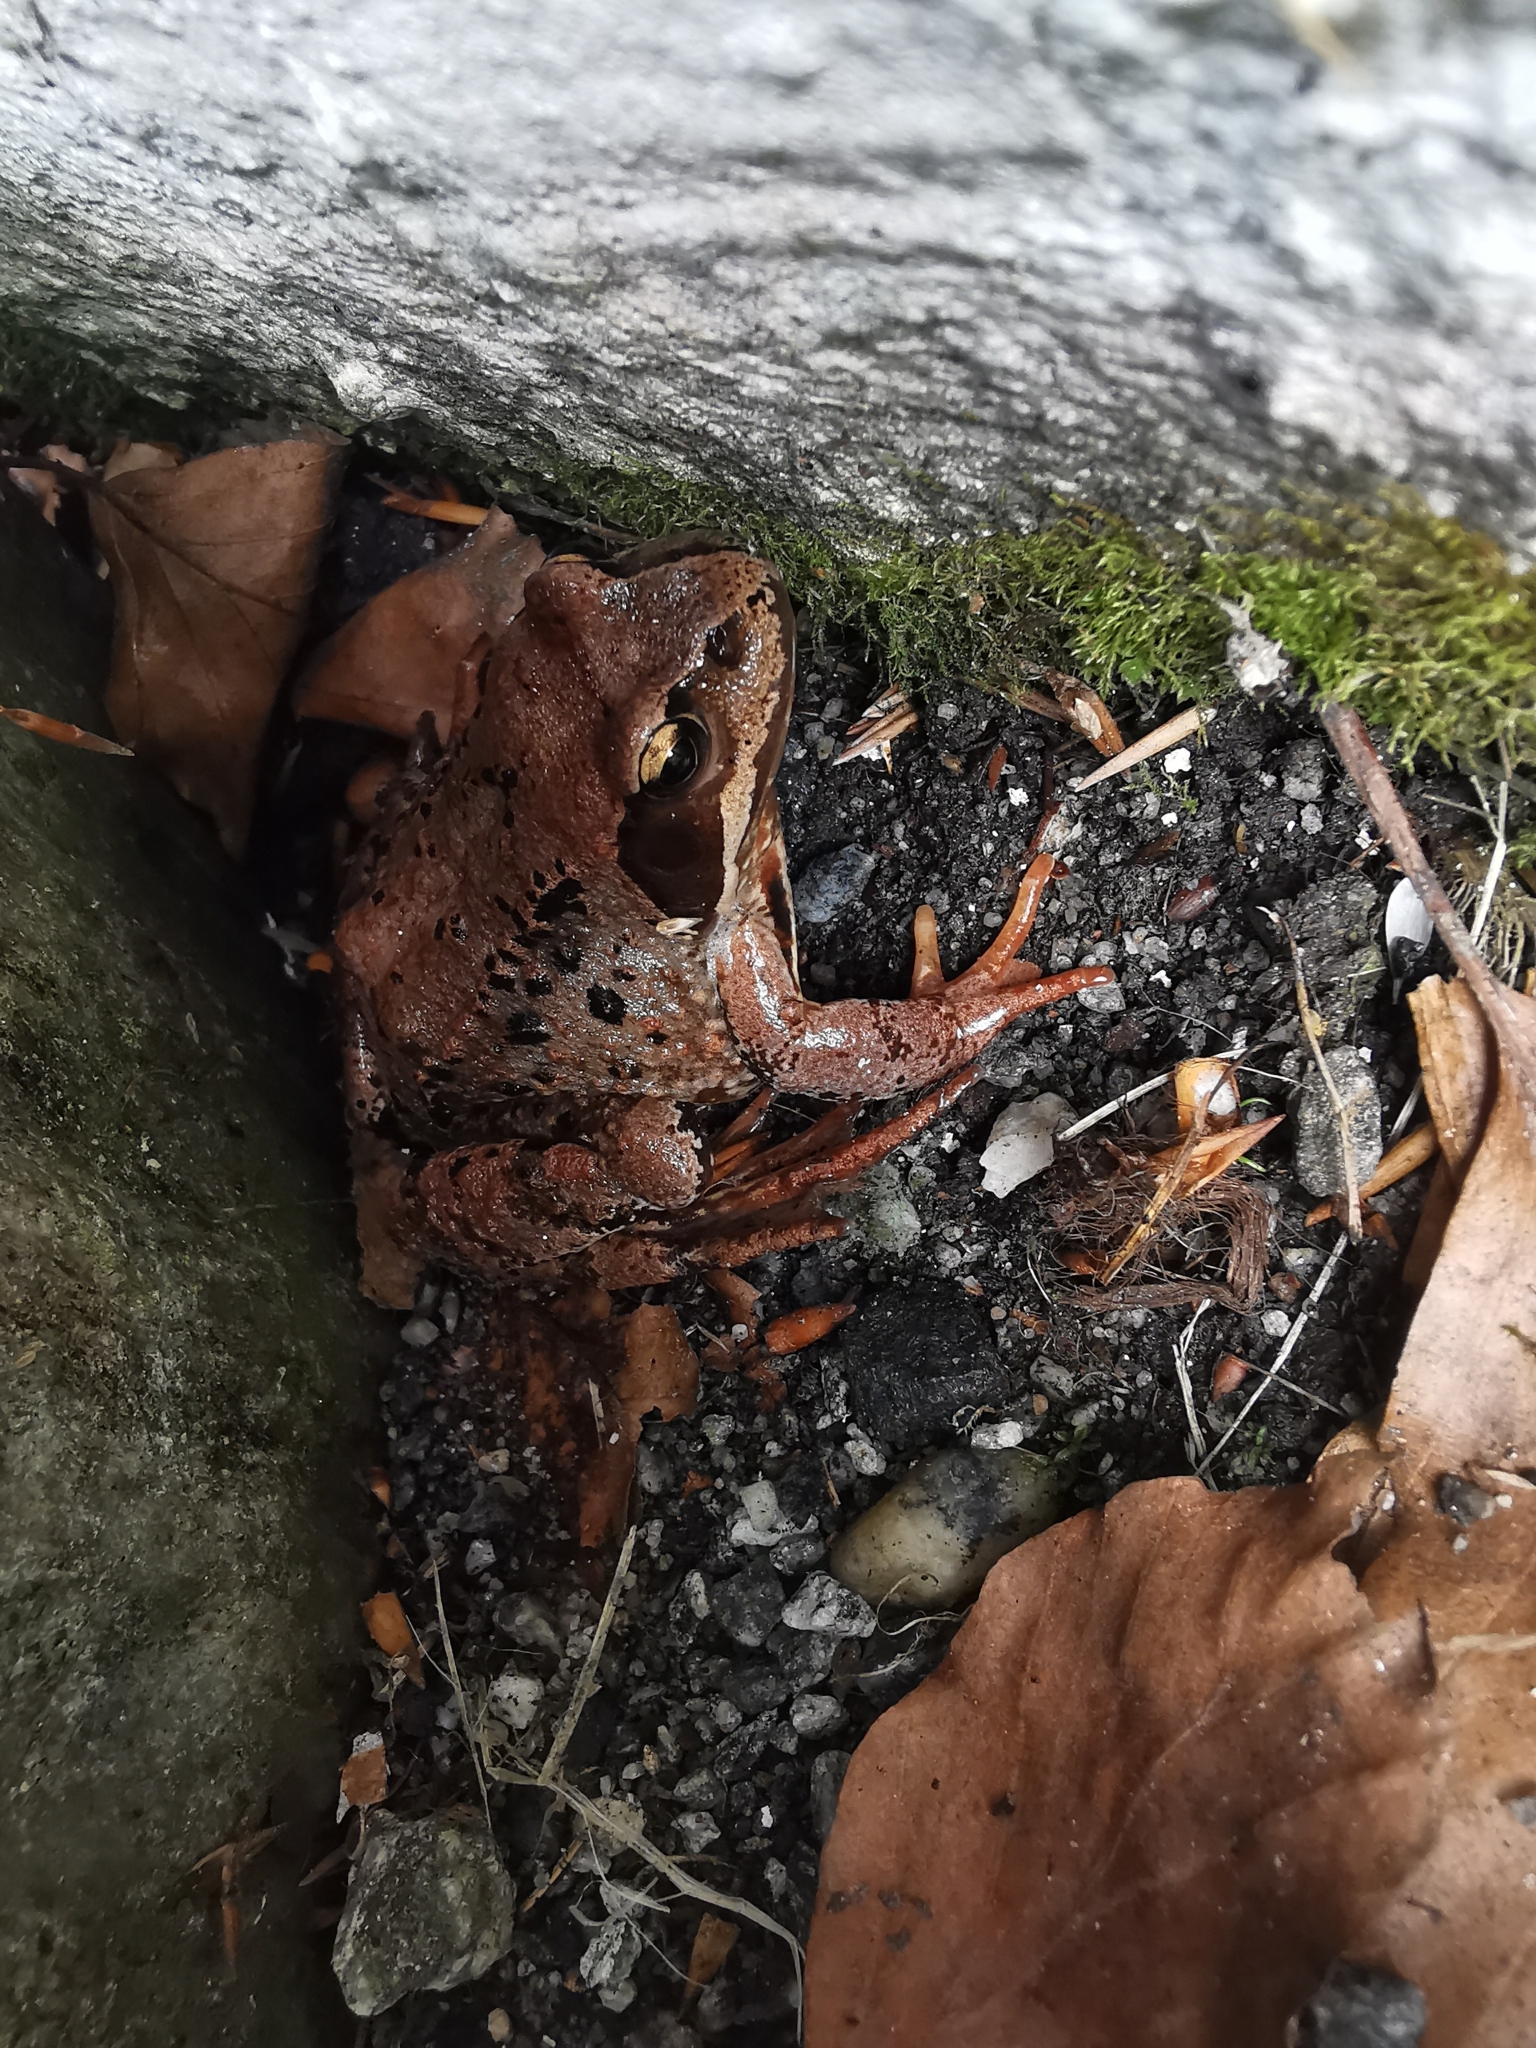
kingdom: Animalia
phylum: Chordata
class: Amphibia
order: Anura
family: Ranidae
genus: Rana
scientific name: Rana temporaria
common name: Common frog
